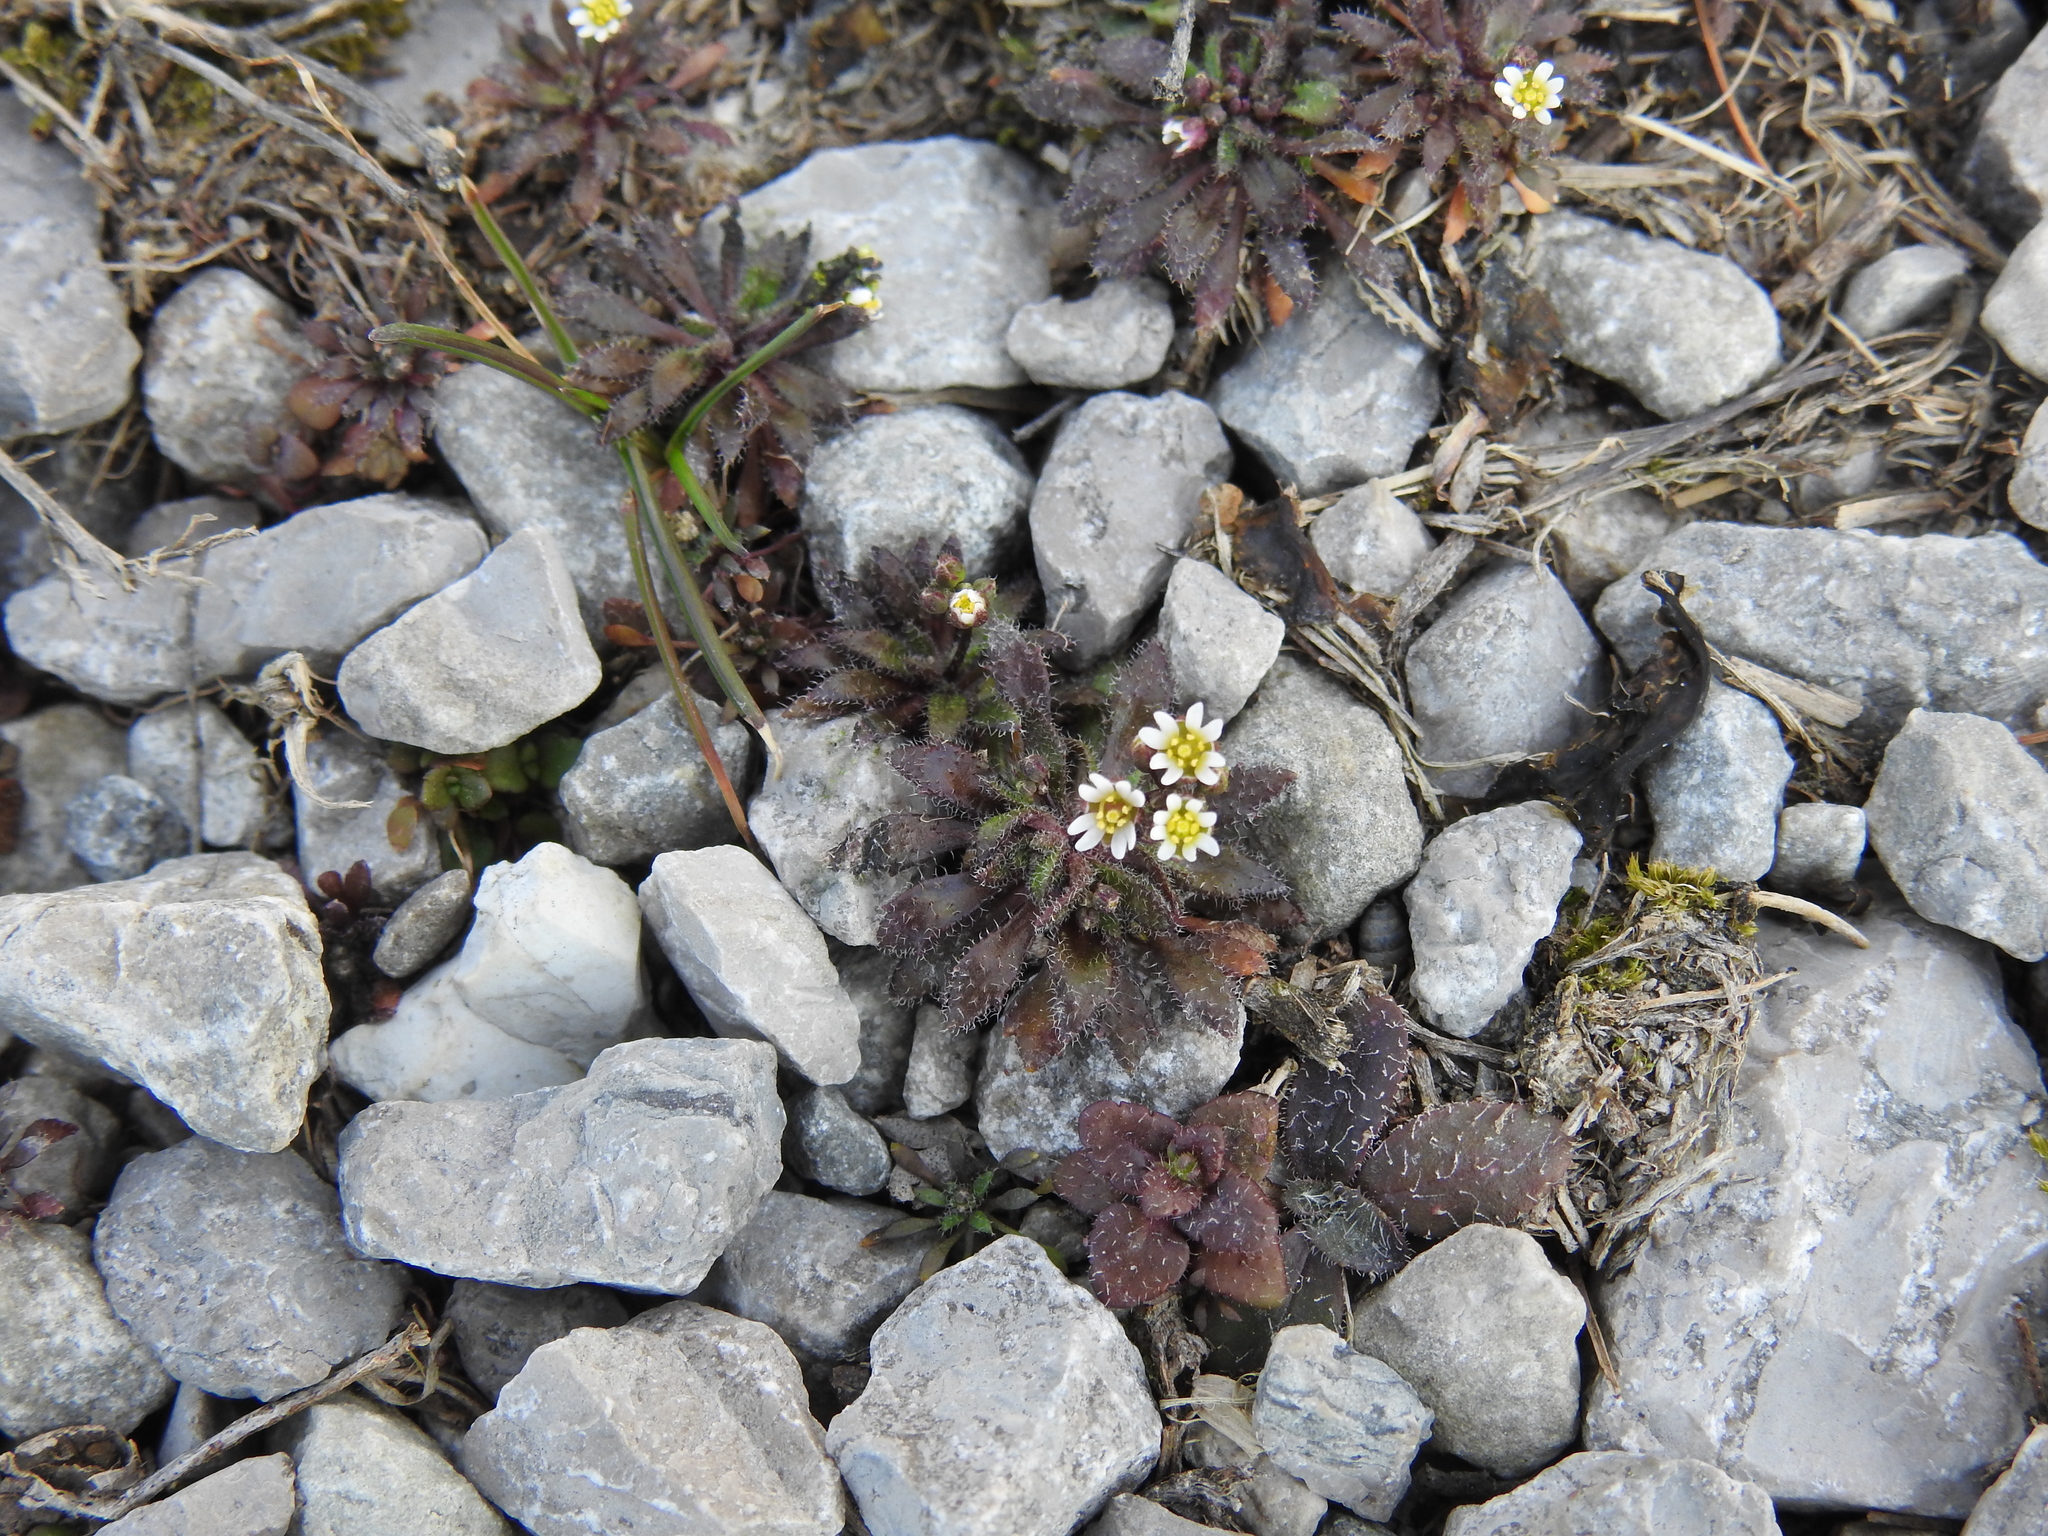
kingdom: Plantae
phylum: Tracheophyta
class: Magnoliopsida
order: Brassicales
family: Brassicaceae
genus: Draba
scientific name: Draba verna
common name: Spring draba
